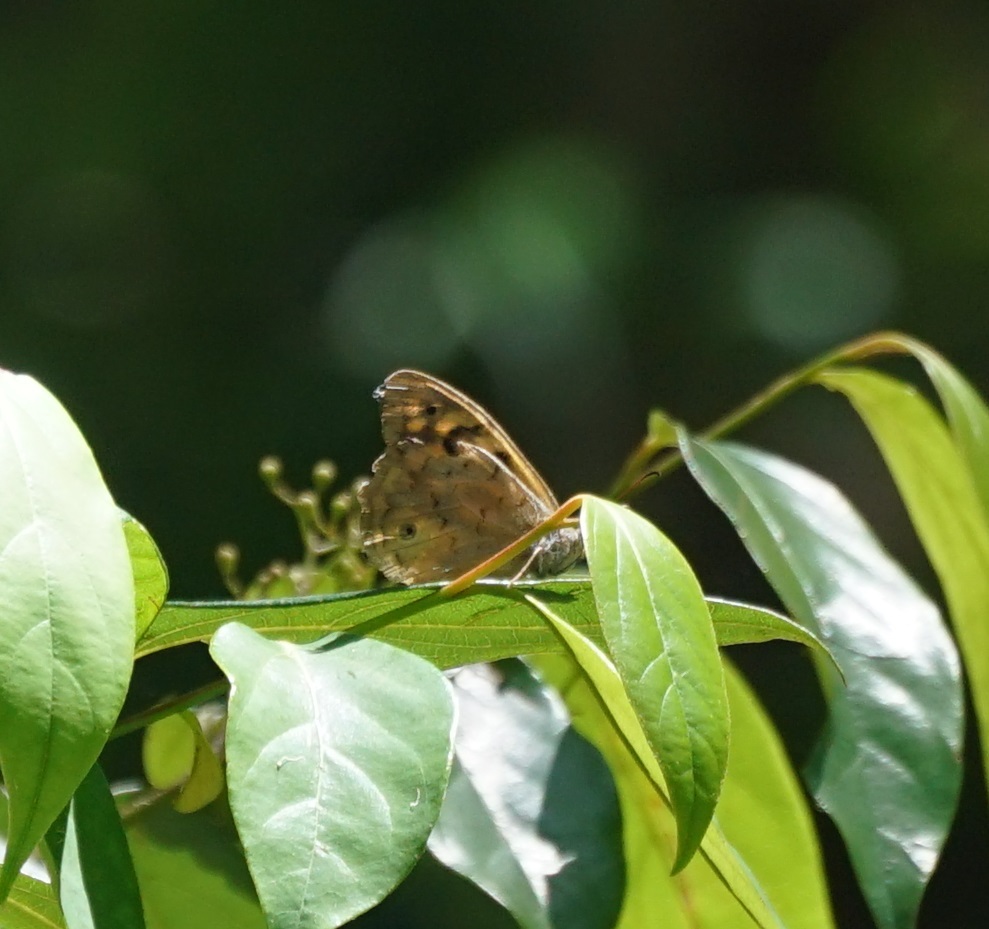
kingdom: Animalia
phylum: Arthropoda
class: Insecta
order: Lepidoptera
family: Nymphalidae
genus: Heteronympha
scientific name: Heteronympha merope
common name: Common brown
